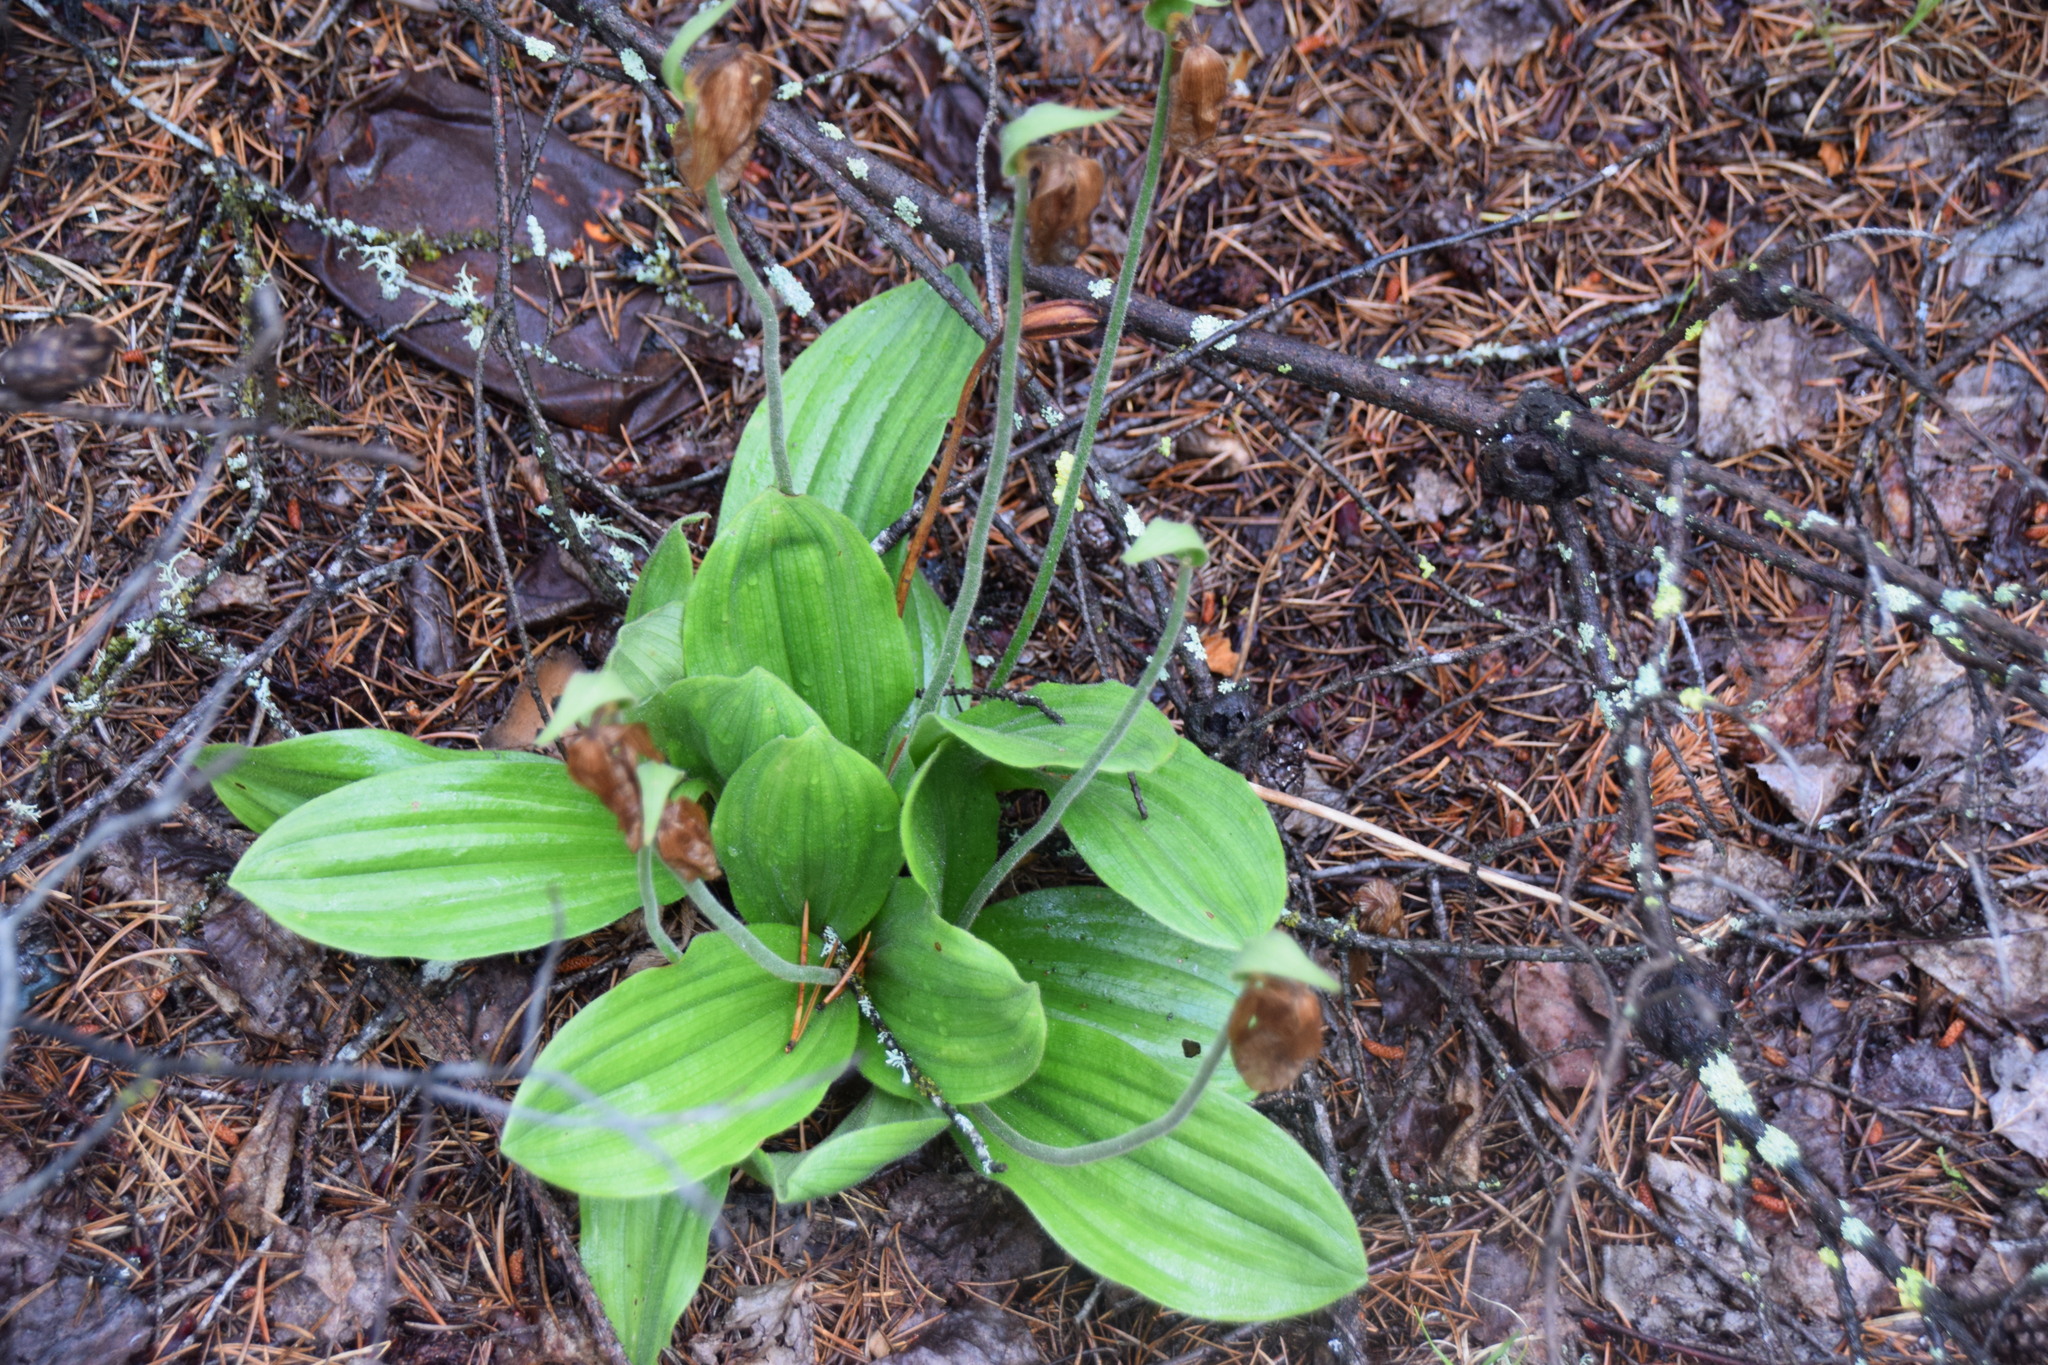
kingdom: Plantae
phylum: Tracheophyta
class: Liliopsida
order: Asparagales
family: Orchidaceae
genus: Cypripedium
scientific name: Cypripedium acaule
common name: Pink lady's-slipper
